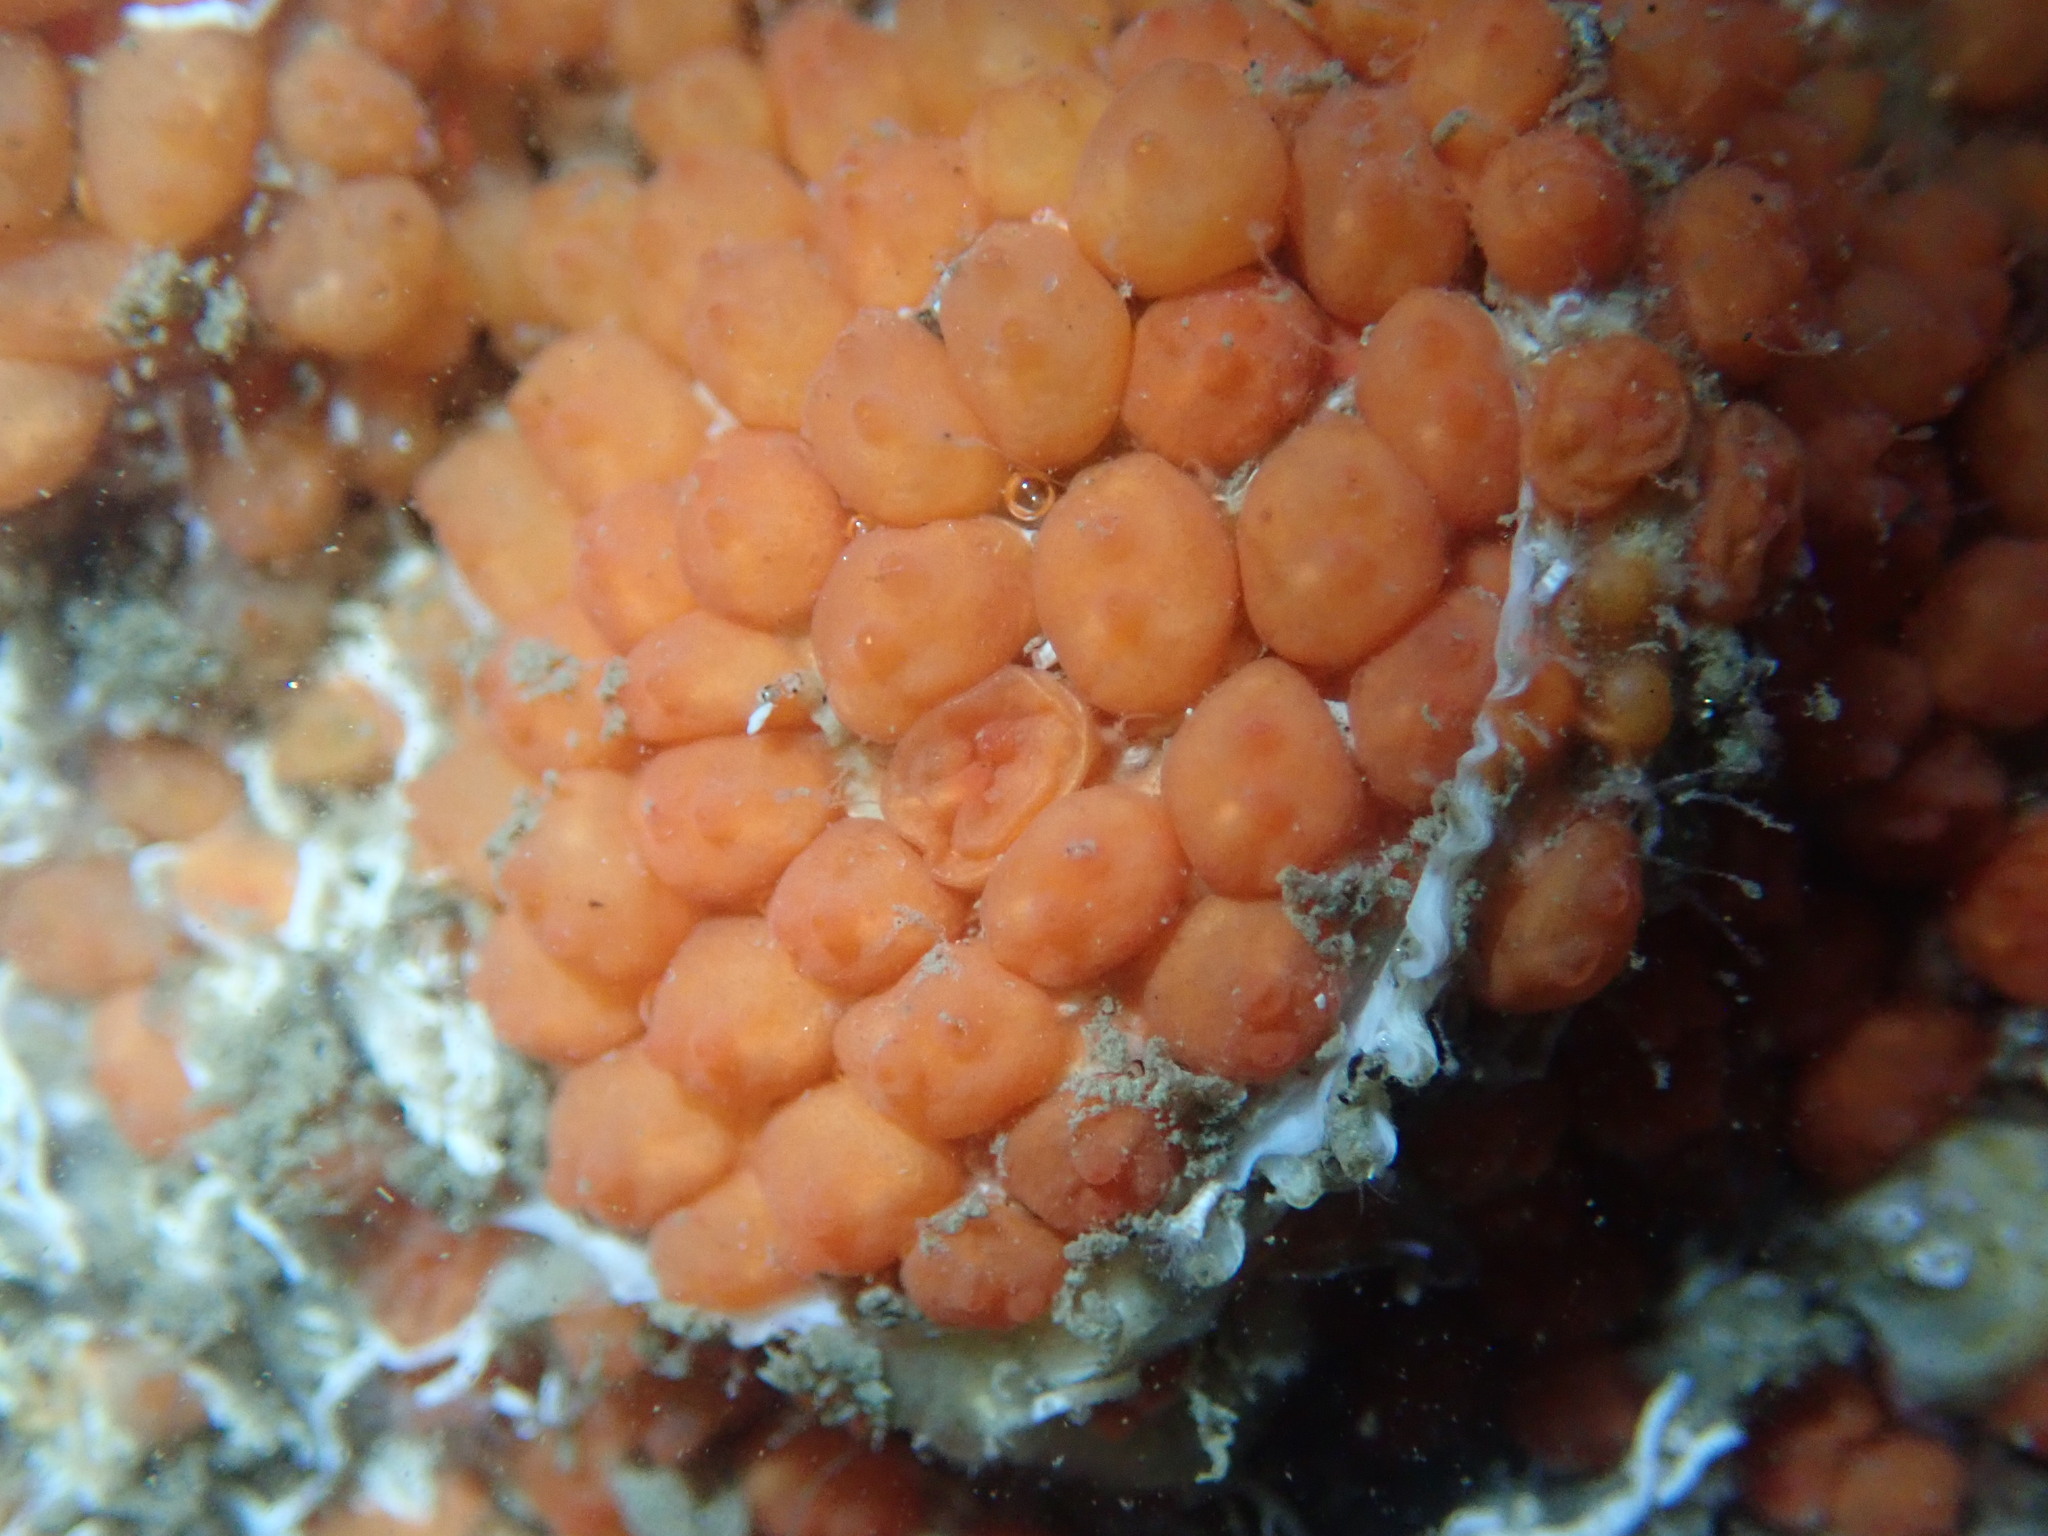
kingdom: Animalia
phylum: Chordata
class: Ascidiacea
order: Stolidobranchia
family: Styelidae
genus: Metandrocarpa
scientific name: Metandrocarpa taylori
